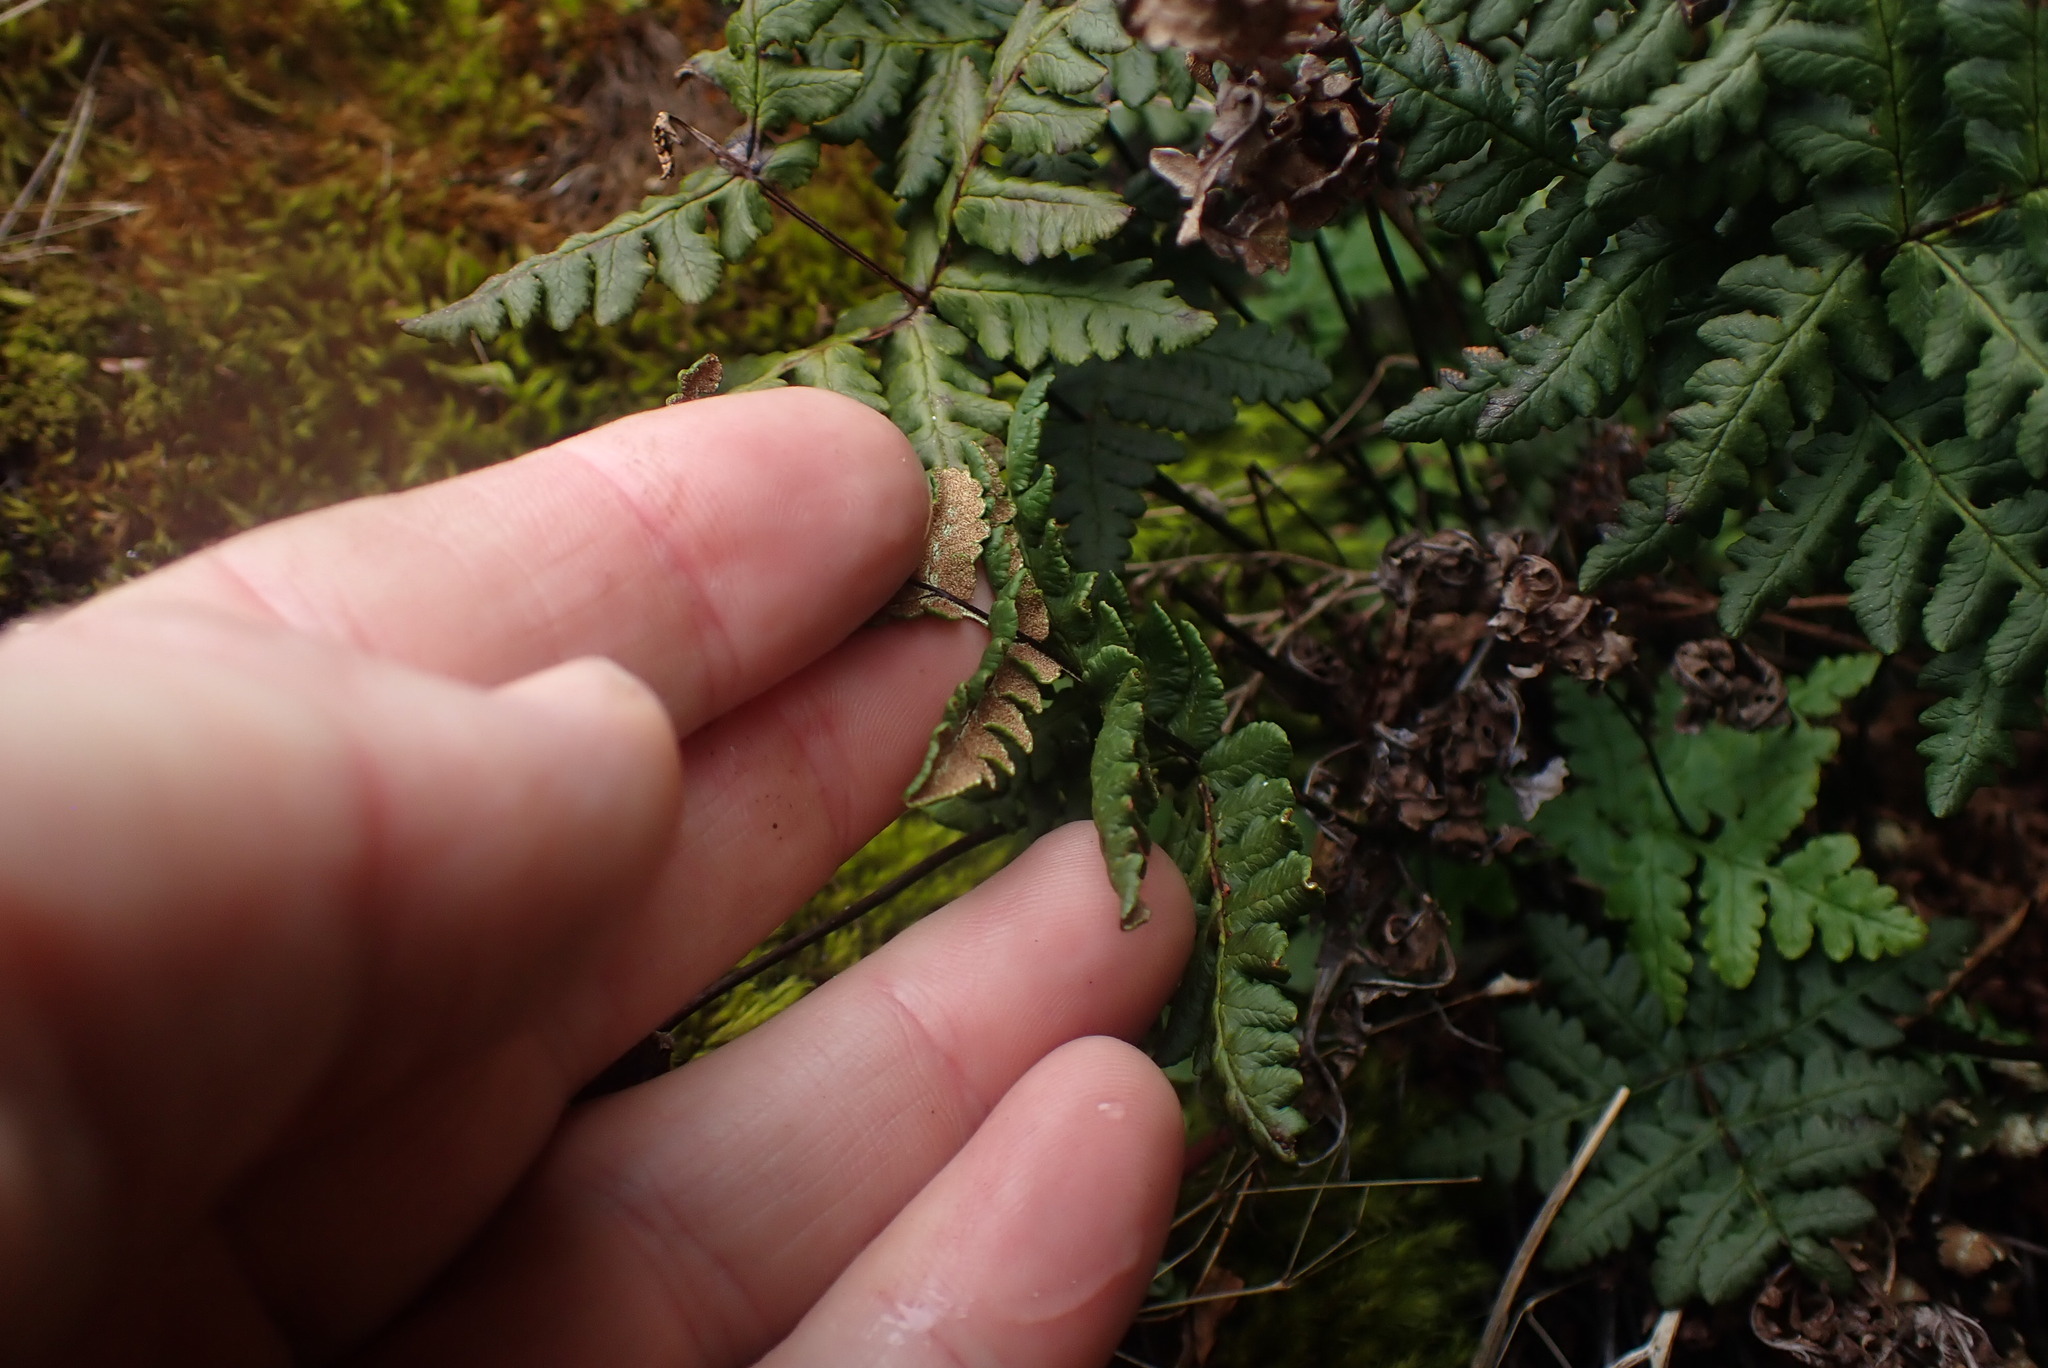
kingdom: Plantae
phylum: Tracheophyta
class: Polypodiopsida
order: Polypodiales
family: Pteridaceae
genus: Pentagramma
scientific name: Pentagramma triangularis
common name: Gold fern
